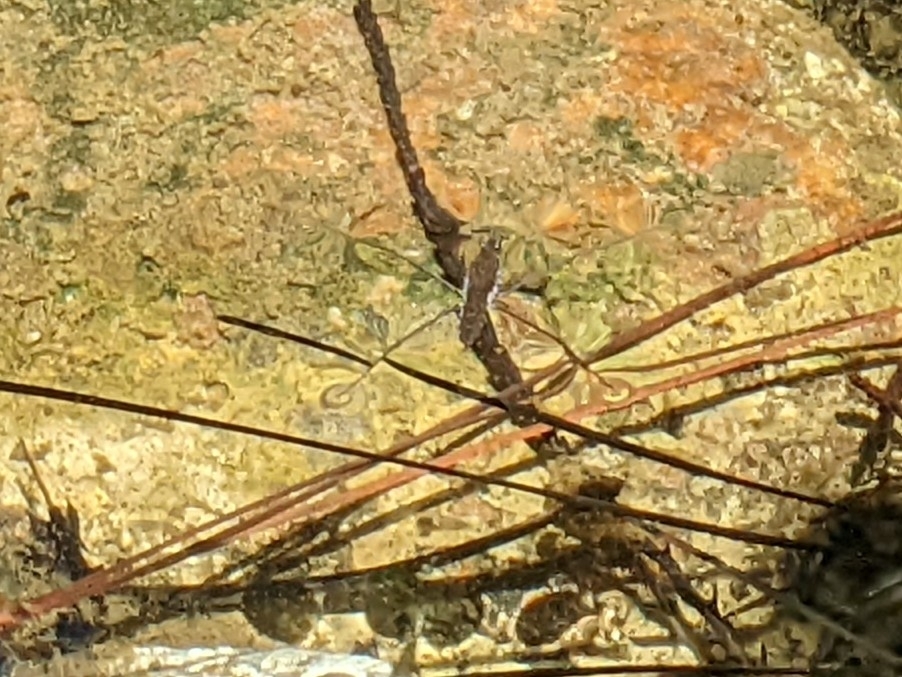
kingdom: Animalia
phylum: Arthropoda
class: Insecta
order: Hemiptera
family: Gerridae
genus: Aquarius
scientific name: Aquarius remigis
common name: Common water strider
